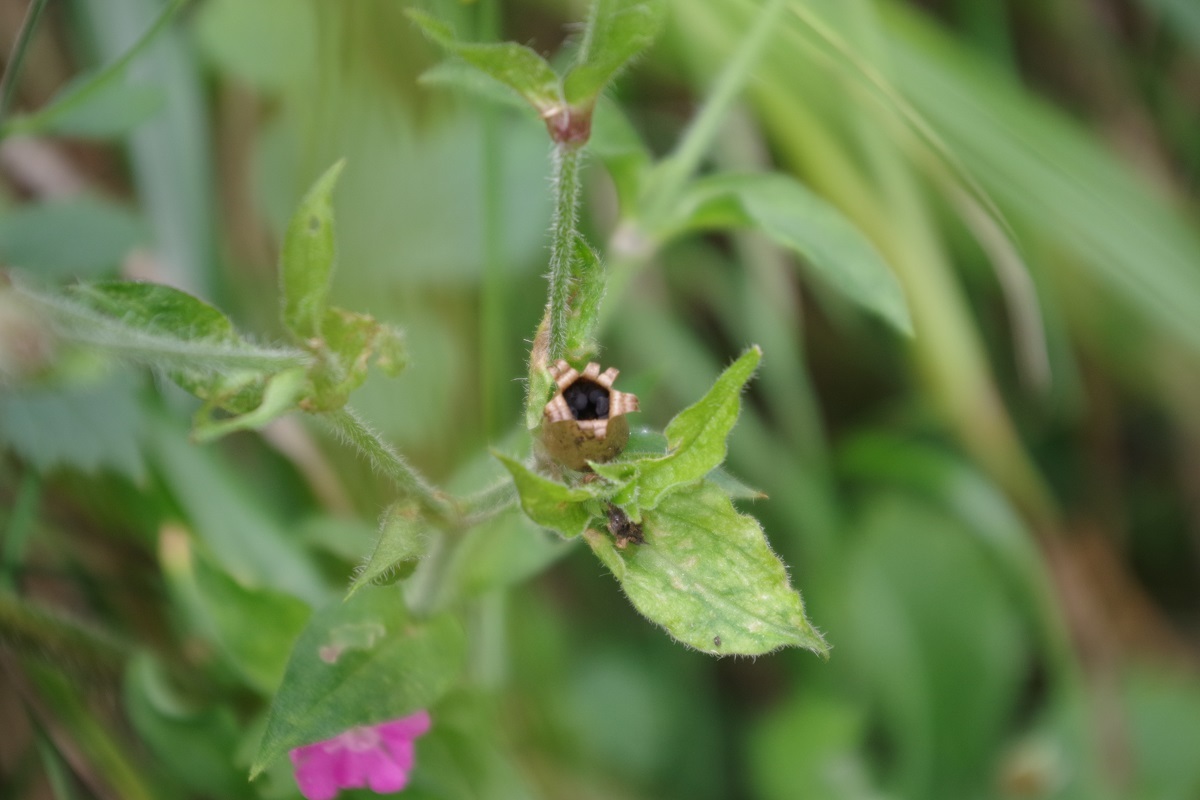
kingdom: Plantae
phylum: Tracheophyta
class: Magnoliopsida
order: Caryophyllales
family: Caryophyllaceae
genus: Silene
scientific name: Silene dioica
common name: Red campion
